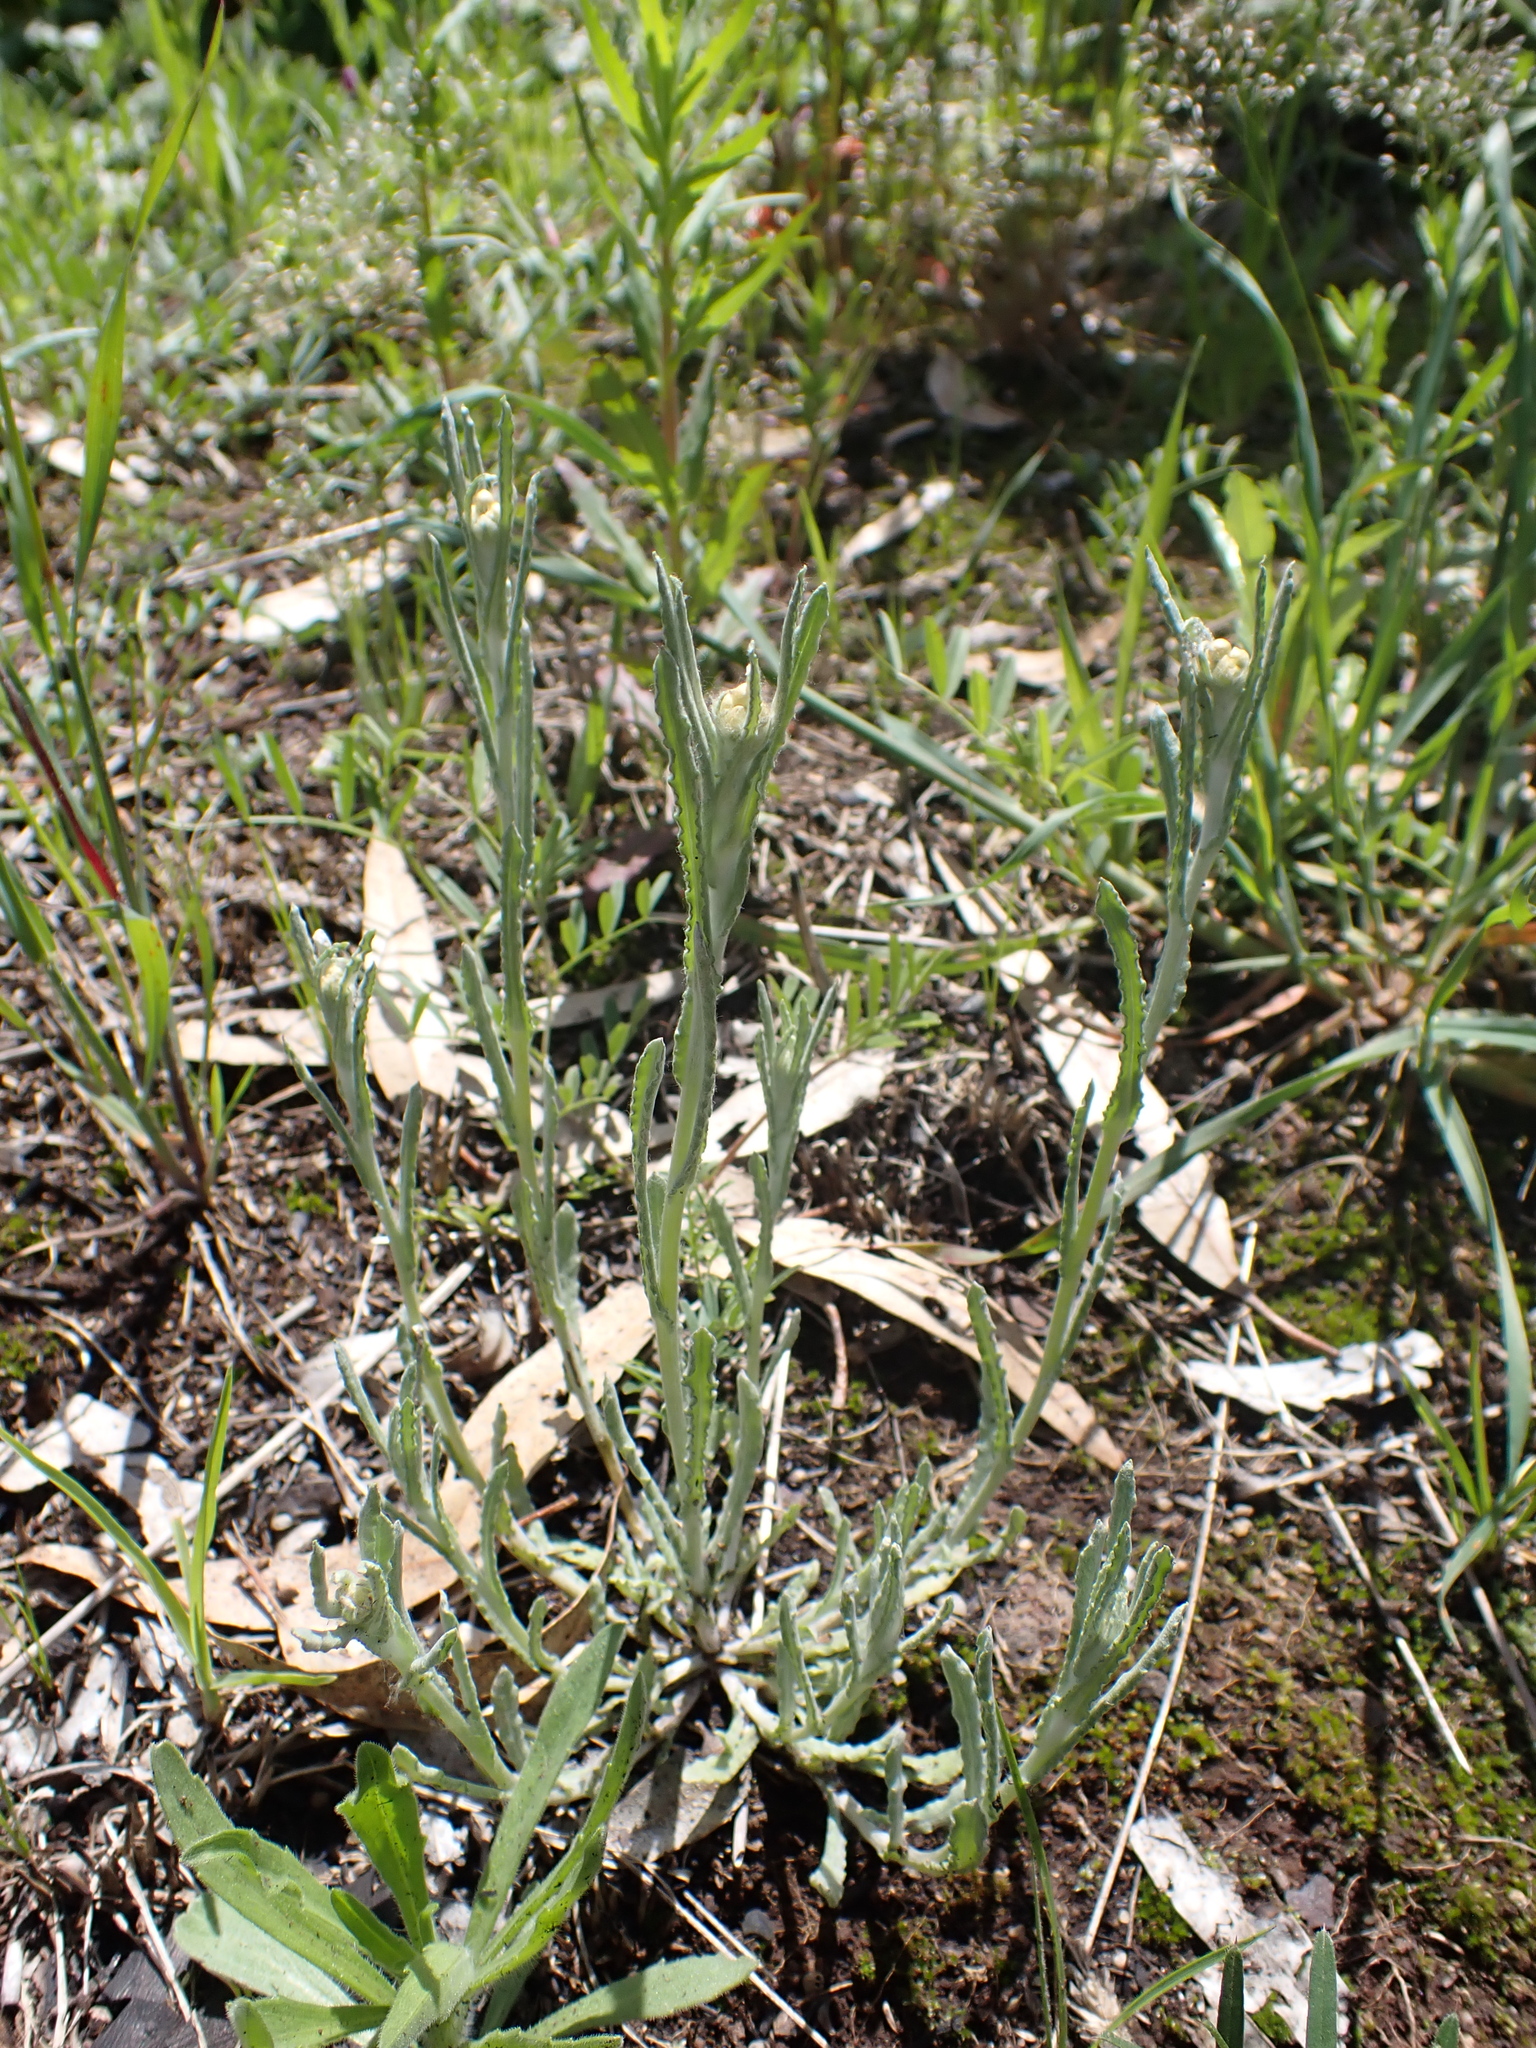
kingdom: Plantae
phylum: Tracheophyta
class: Magnoliopsida
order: Asterales
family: Asteraceae
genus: Helichrysum
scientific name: Helichrysum luteoalbum
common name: Daisy
